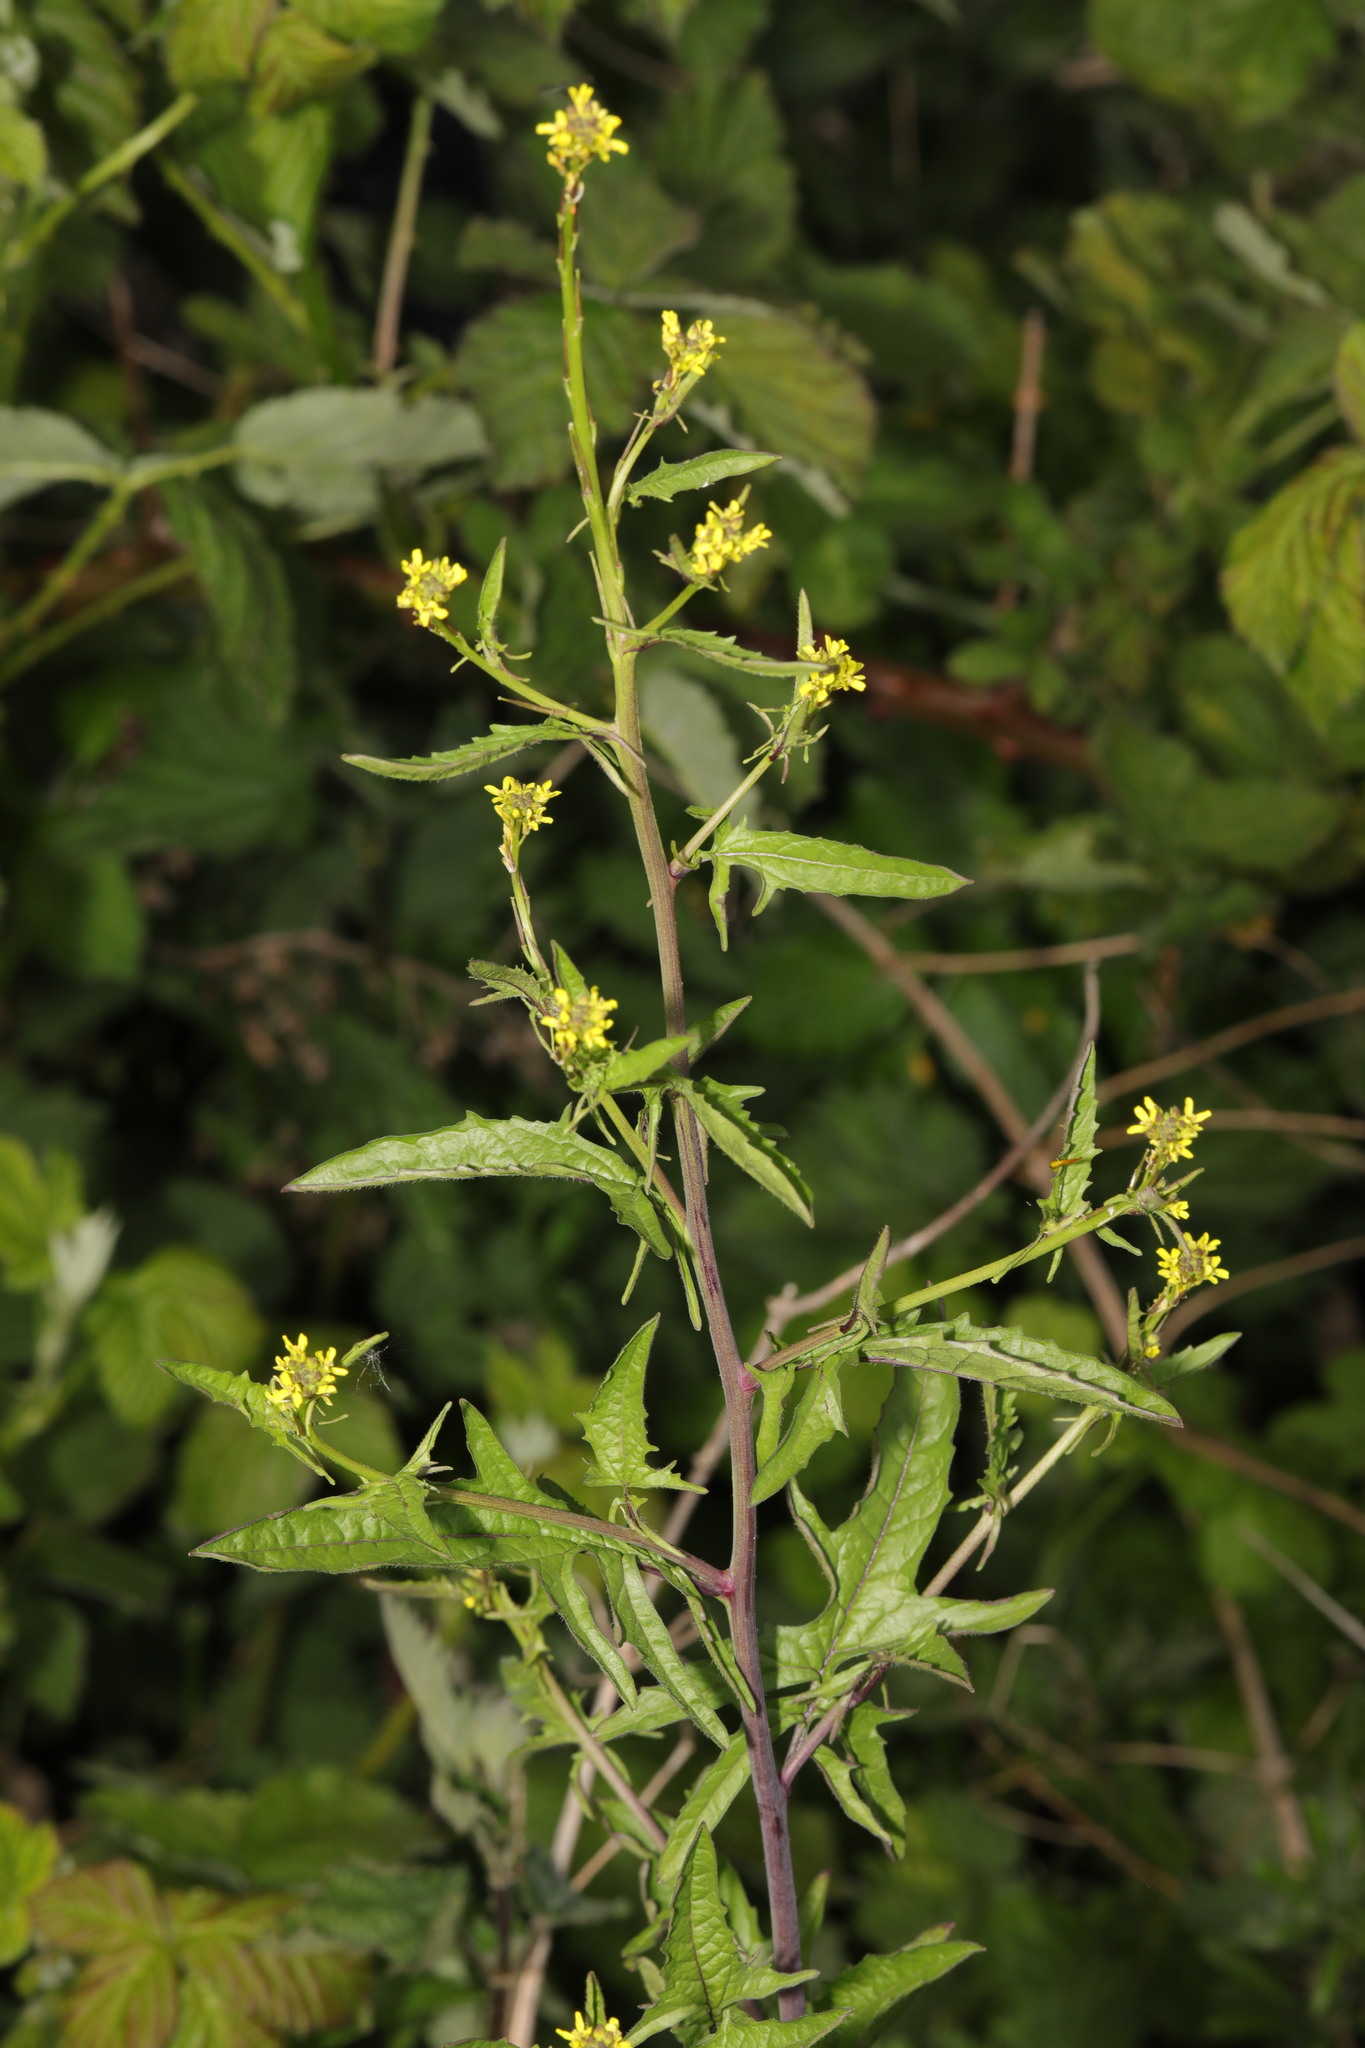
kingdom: Plantae
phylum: Tracheophyta
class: Magnoliopsida
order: Brassicales
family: Brassicaceae
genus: Sisymbrium
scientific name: Sisymbrium officinale
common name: Hedge mustard
